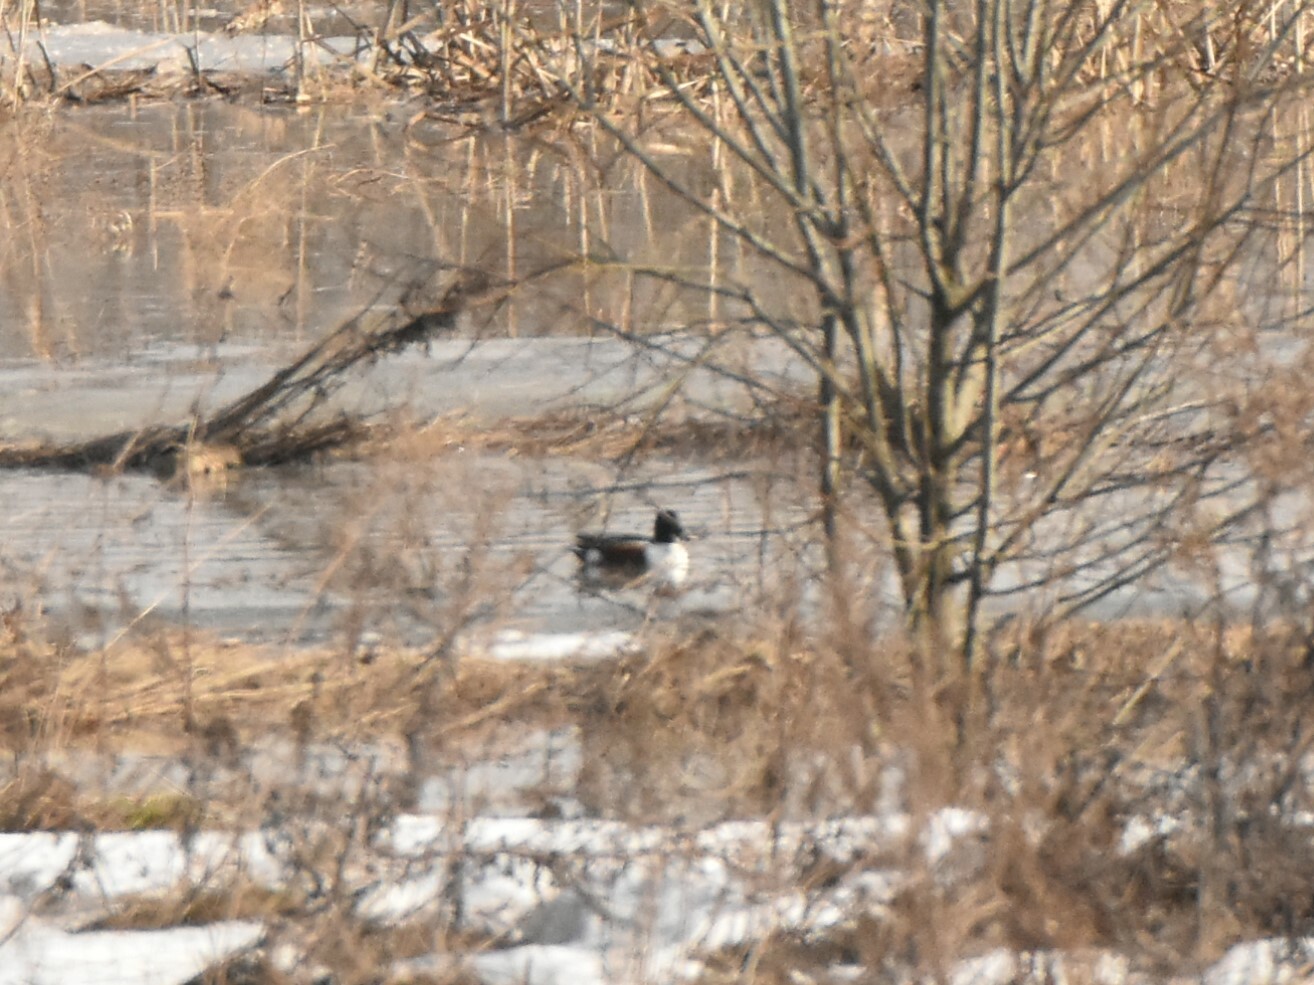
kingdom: Animalia
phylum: Chordata
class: Aves
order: Anseriformes
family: Anatidae
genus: Spatula
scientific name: Spatula clypeata
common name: Northern shoveler
